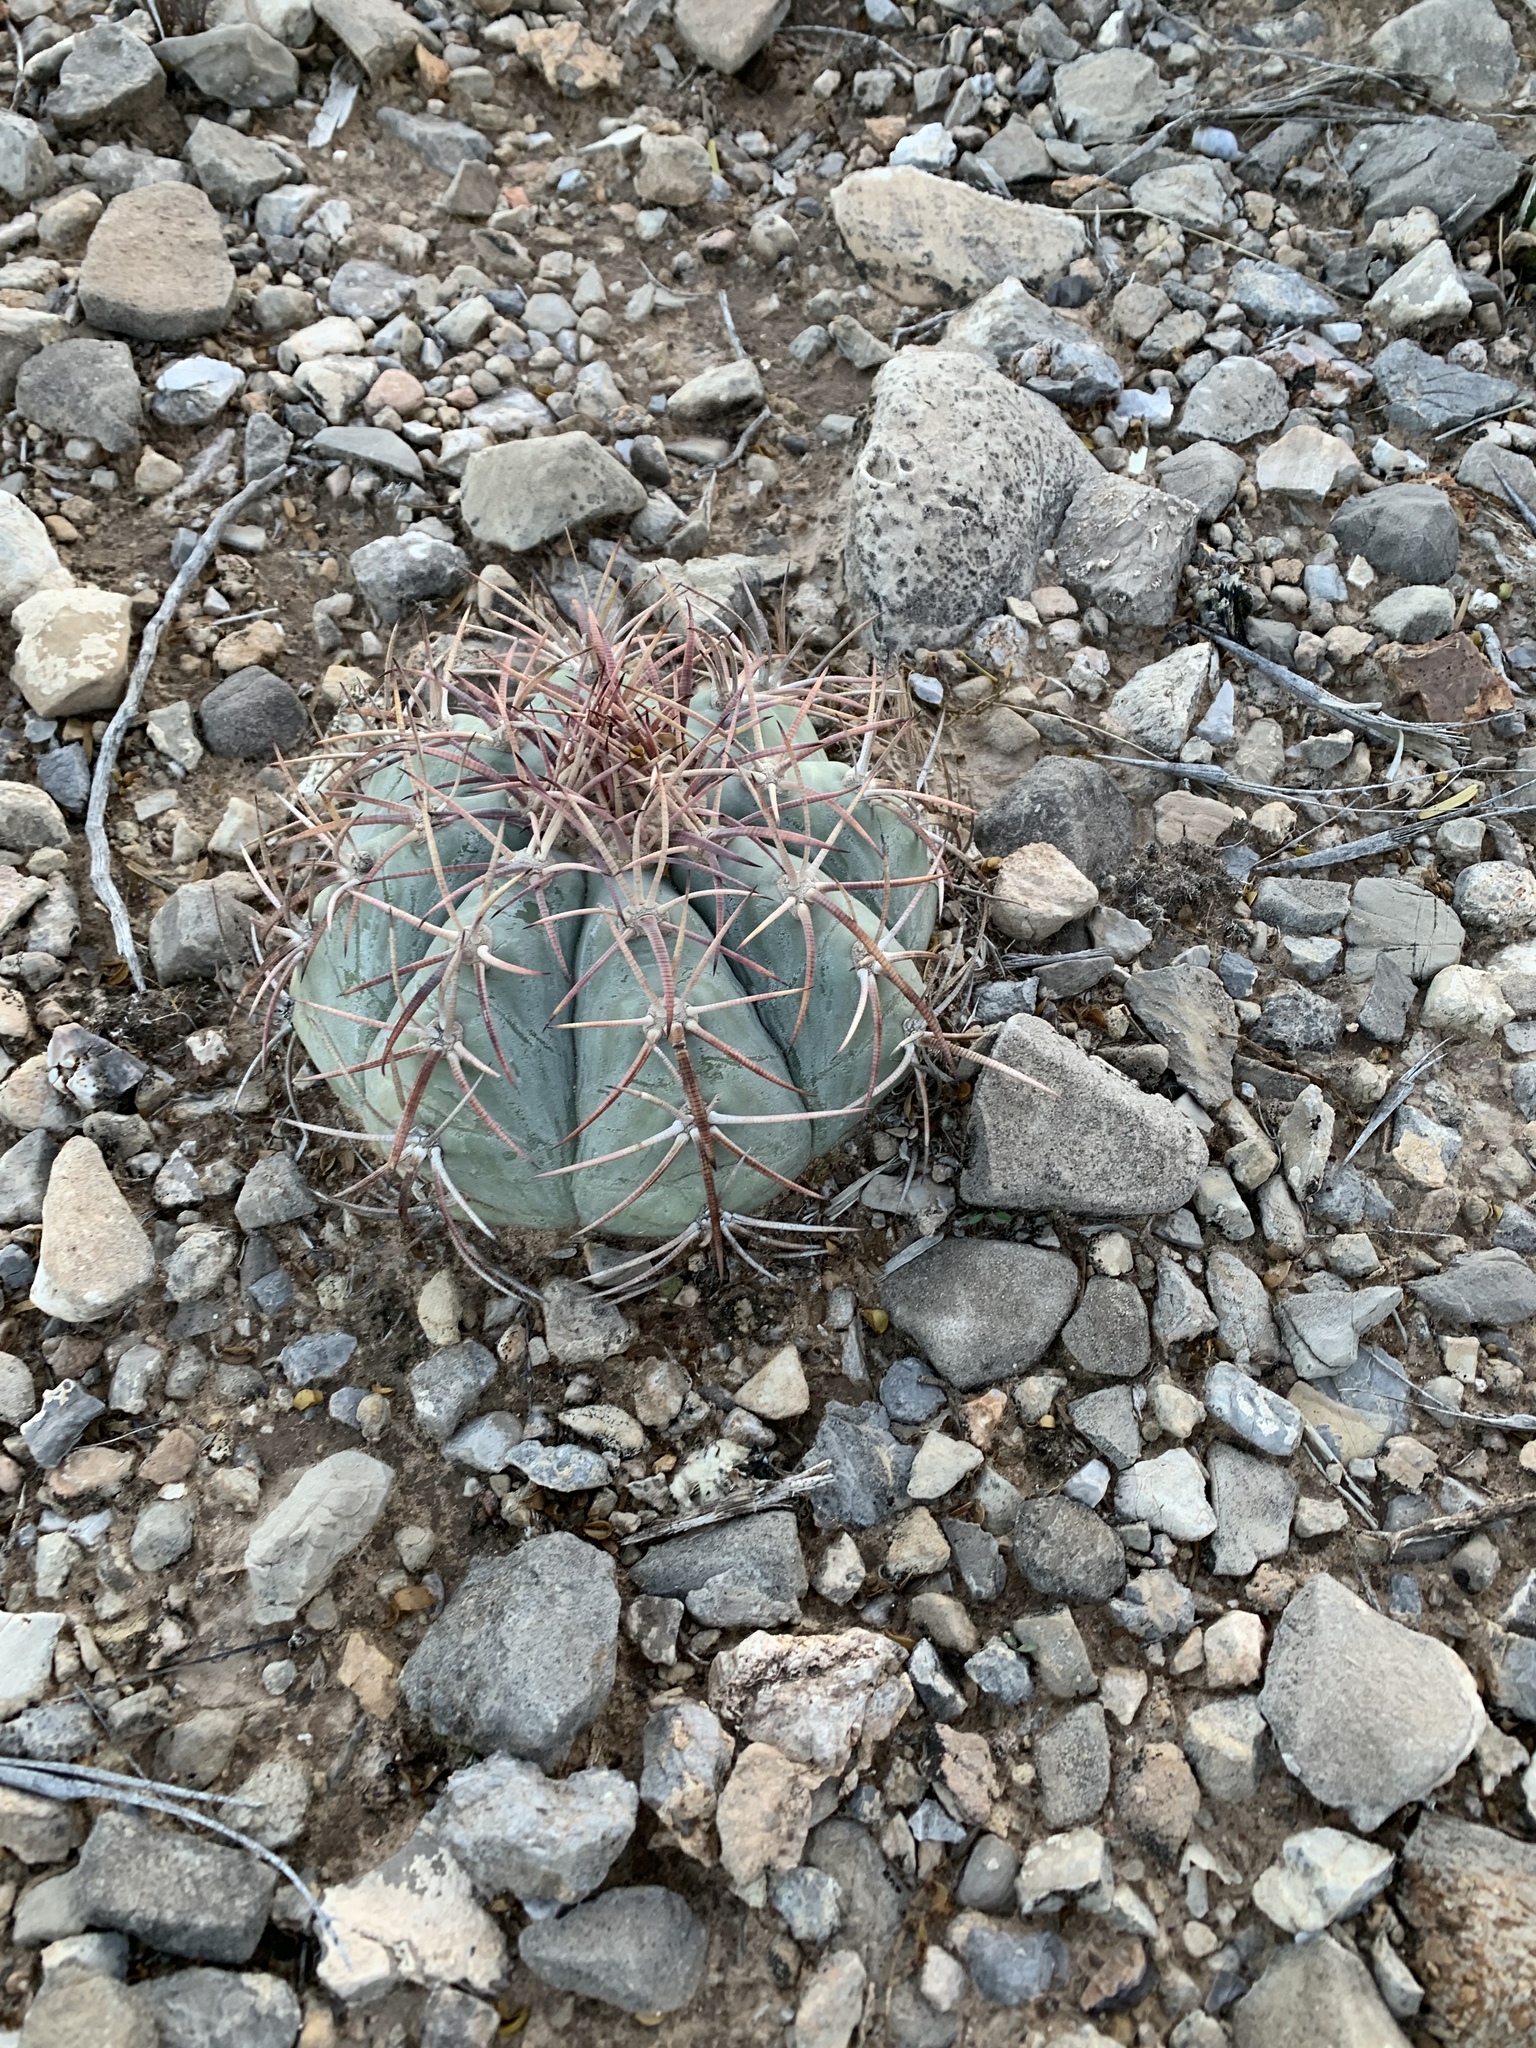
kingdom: Plantae
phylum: Tracheophyta
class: Magnoliopsida
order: Caryophyllales
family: Cactaceae
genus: Echinocactus
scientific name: Echinocactus horizonthalonius
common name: Devilshead
